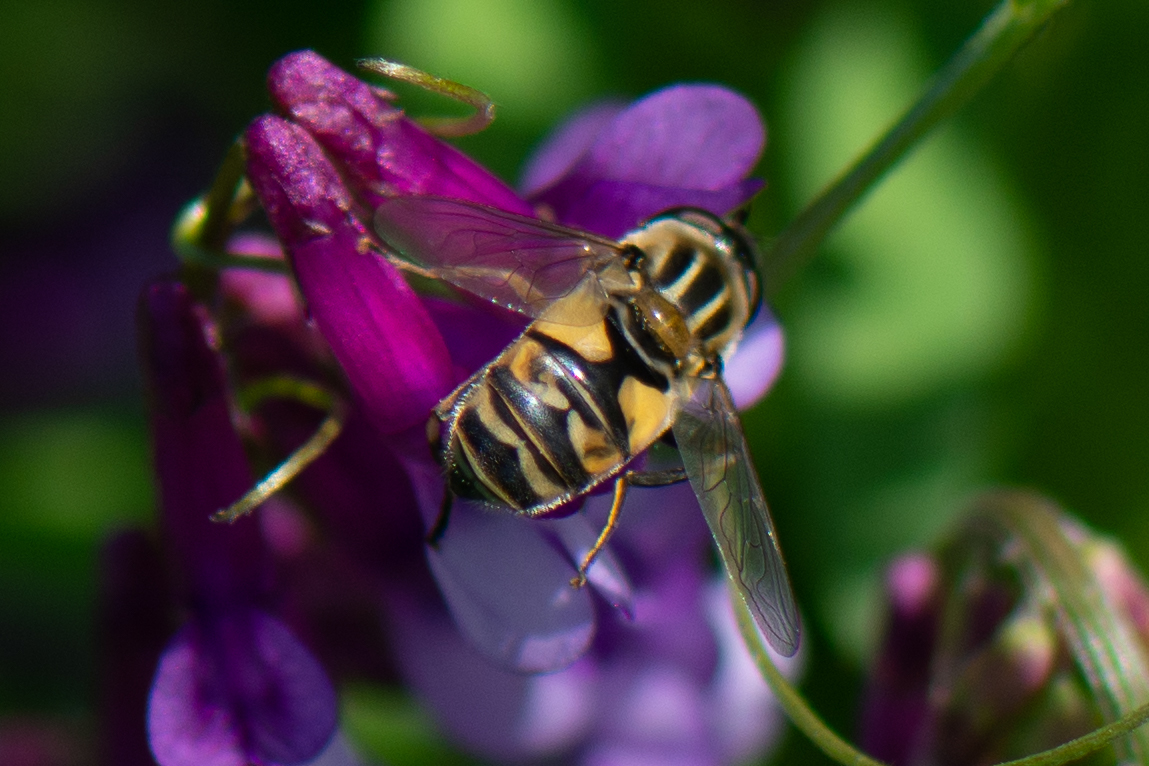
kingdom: Animalia
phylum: Arthropoda
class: Insecta
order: Diptera
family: Syrphidae
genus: Helophilus
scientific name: Helophilus latifrons
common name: Broad-headed marsh fly
